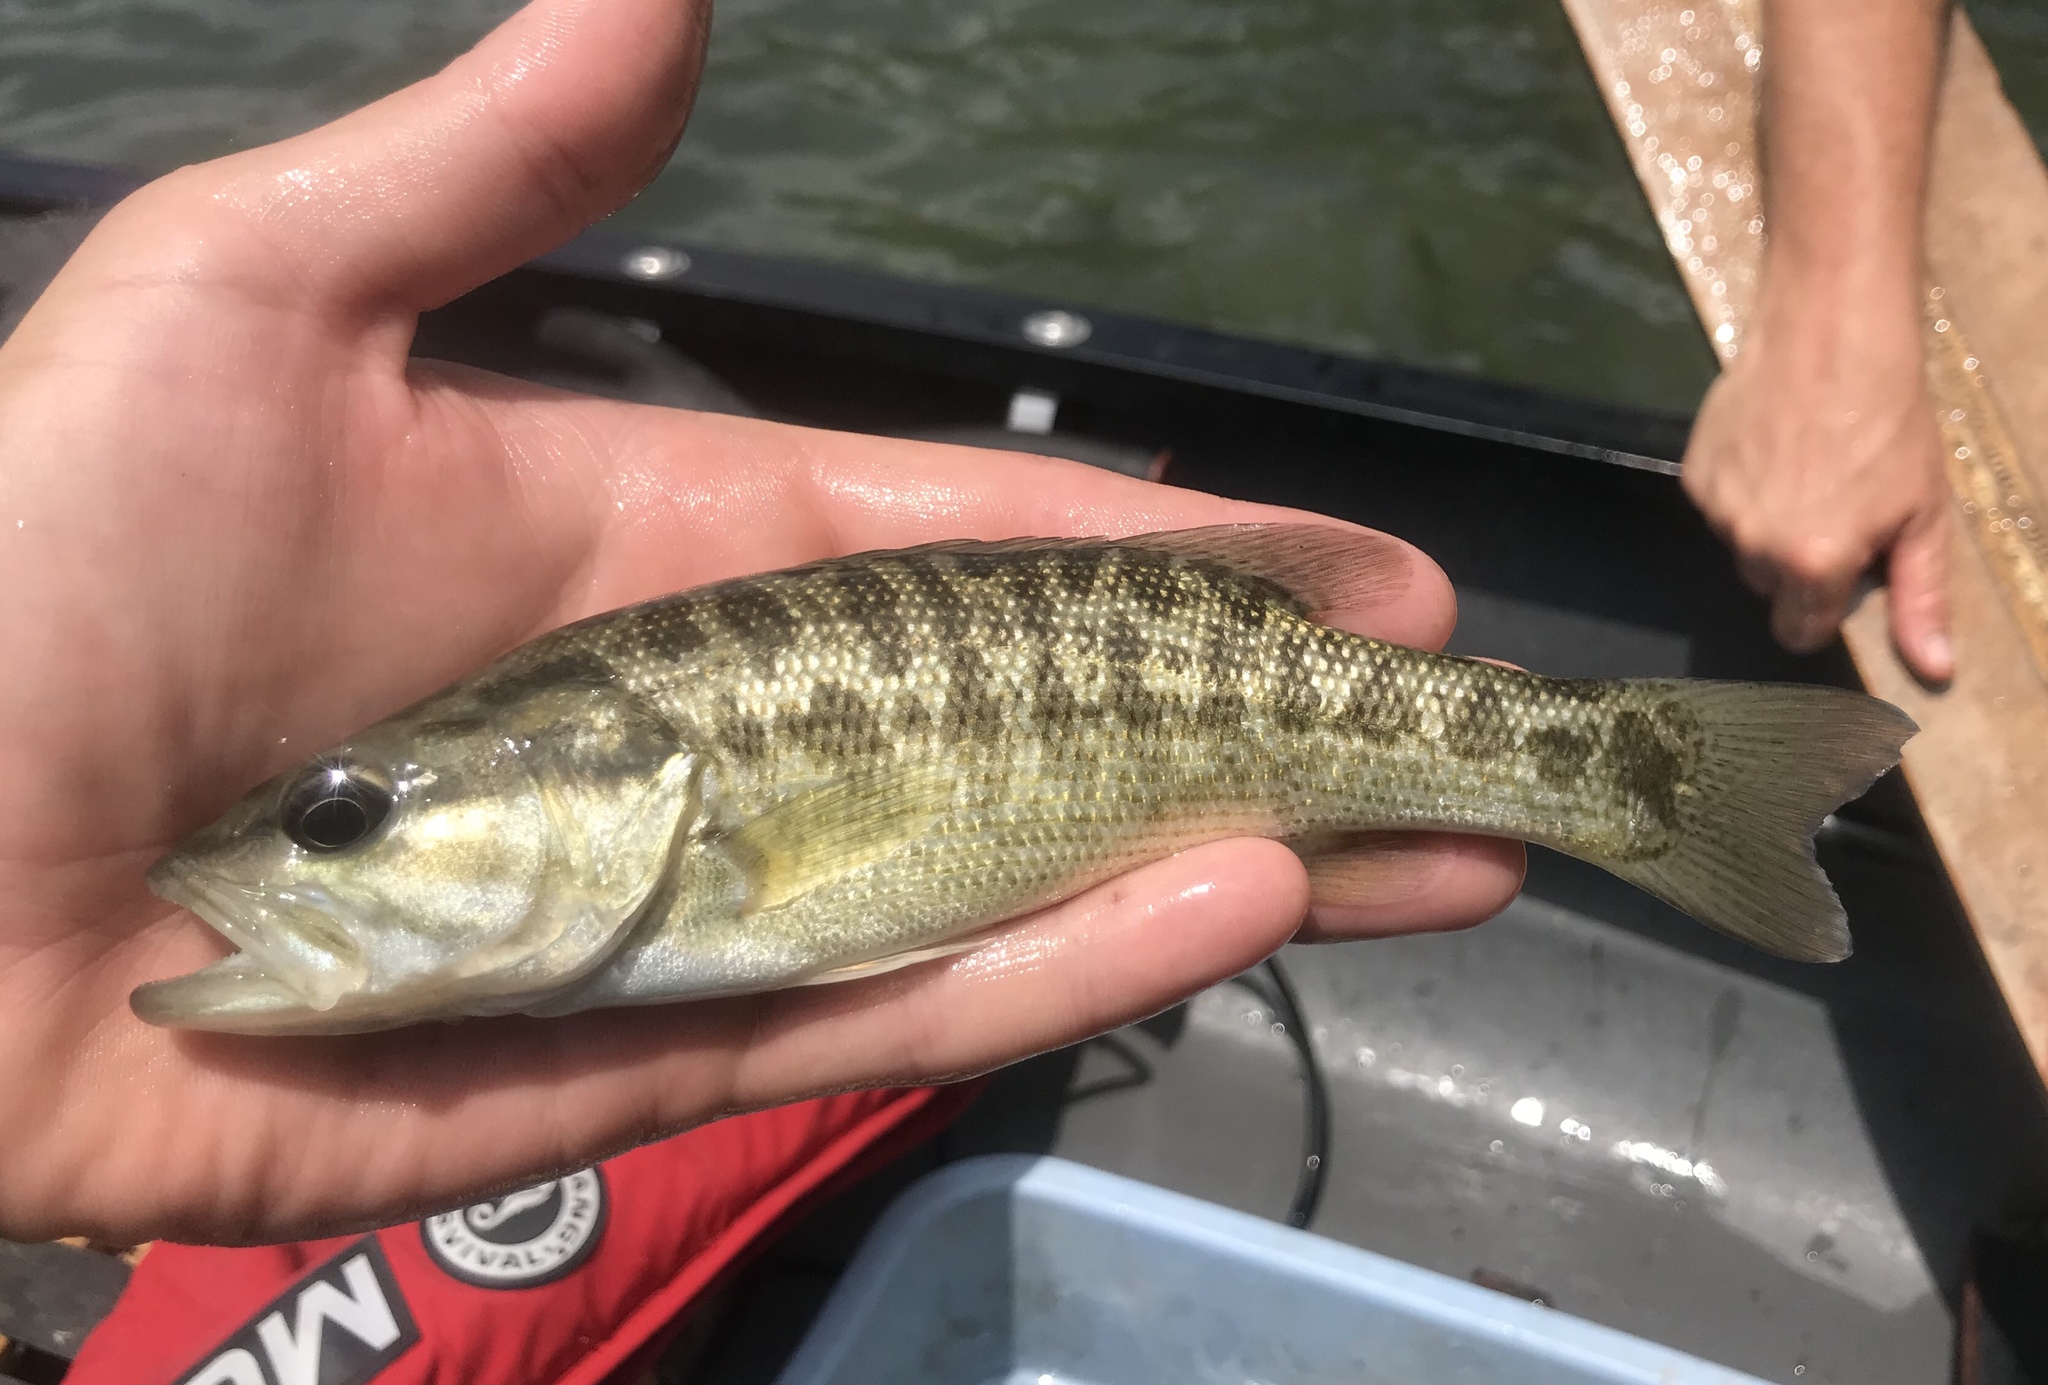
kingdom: Animalia
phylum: Chordata
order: Perciformes
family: Centrarchidae
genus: Micropterus
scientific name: Micropterus treculii
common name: Guadalupe bass
